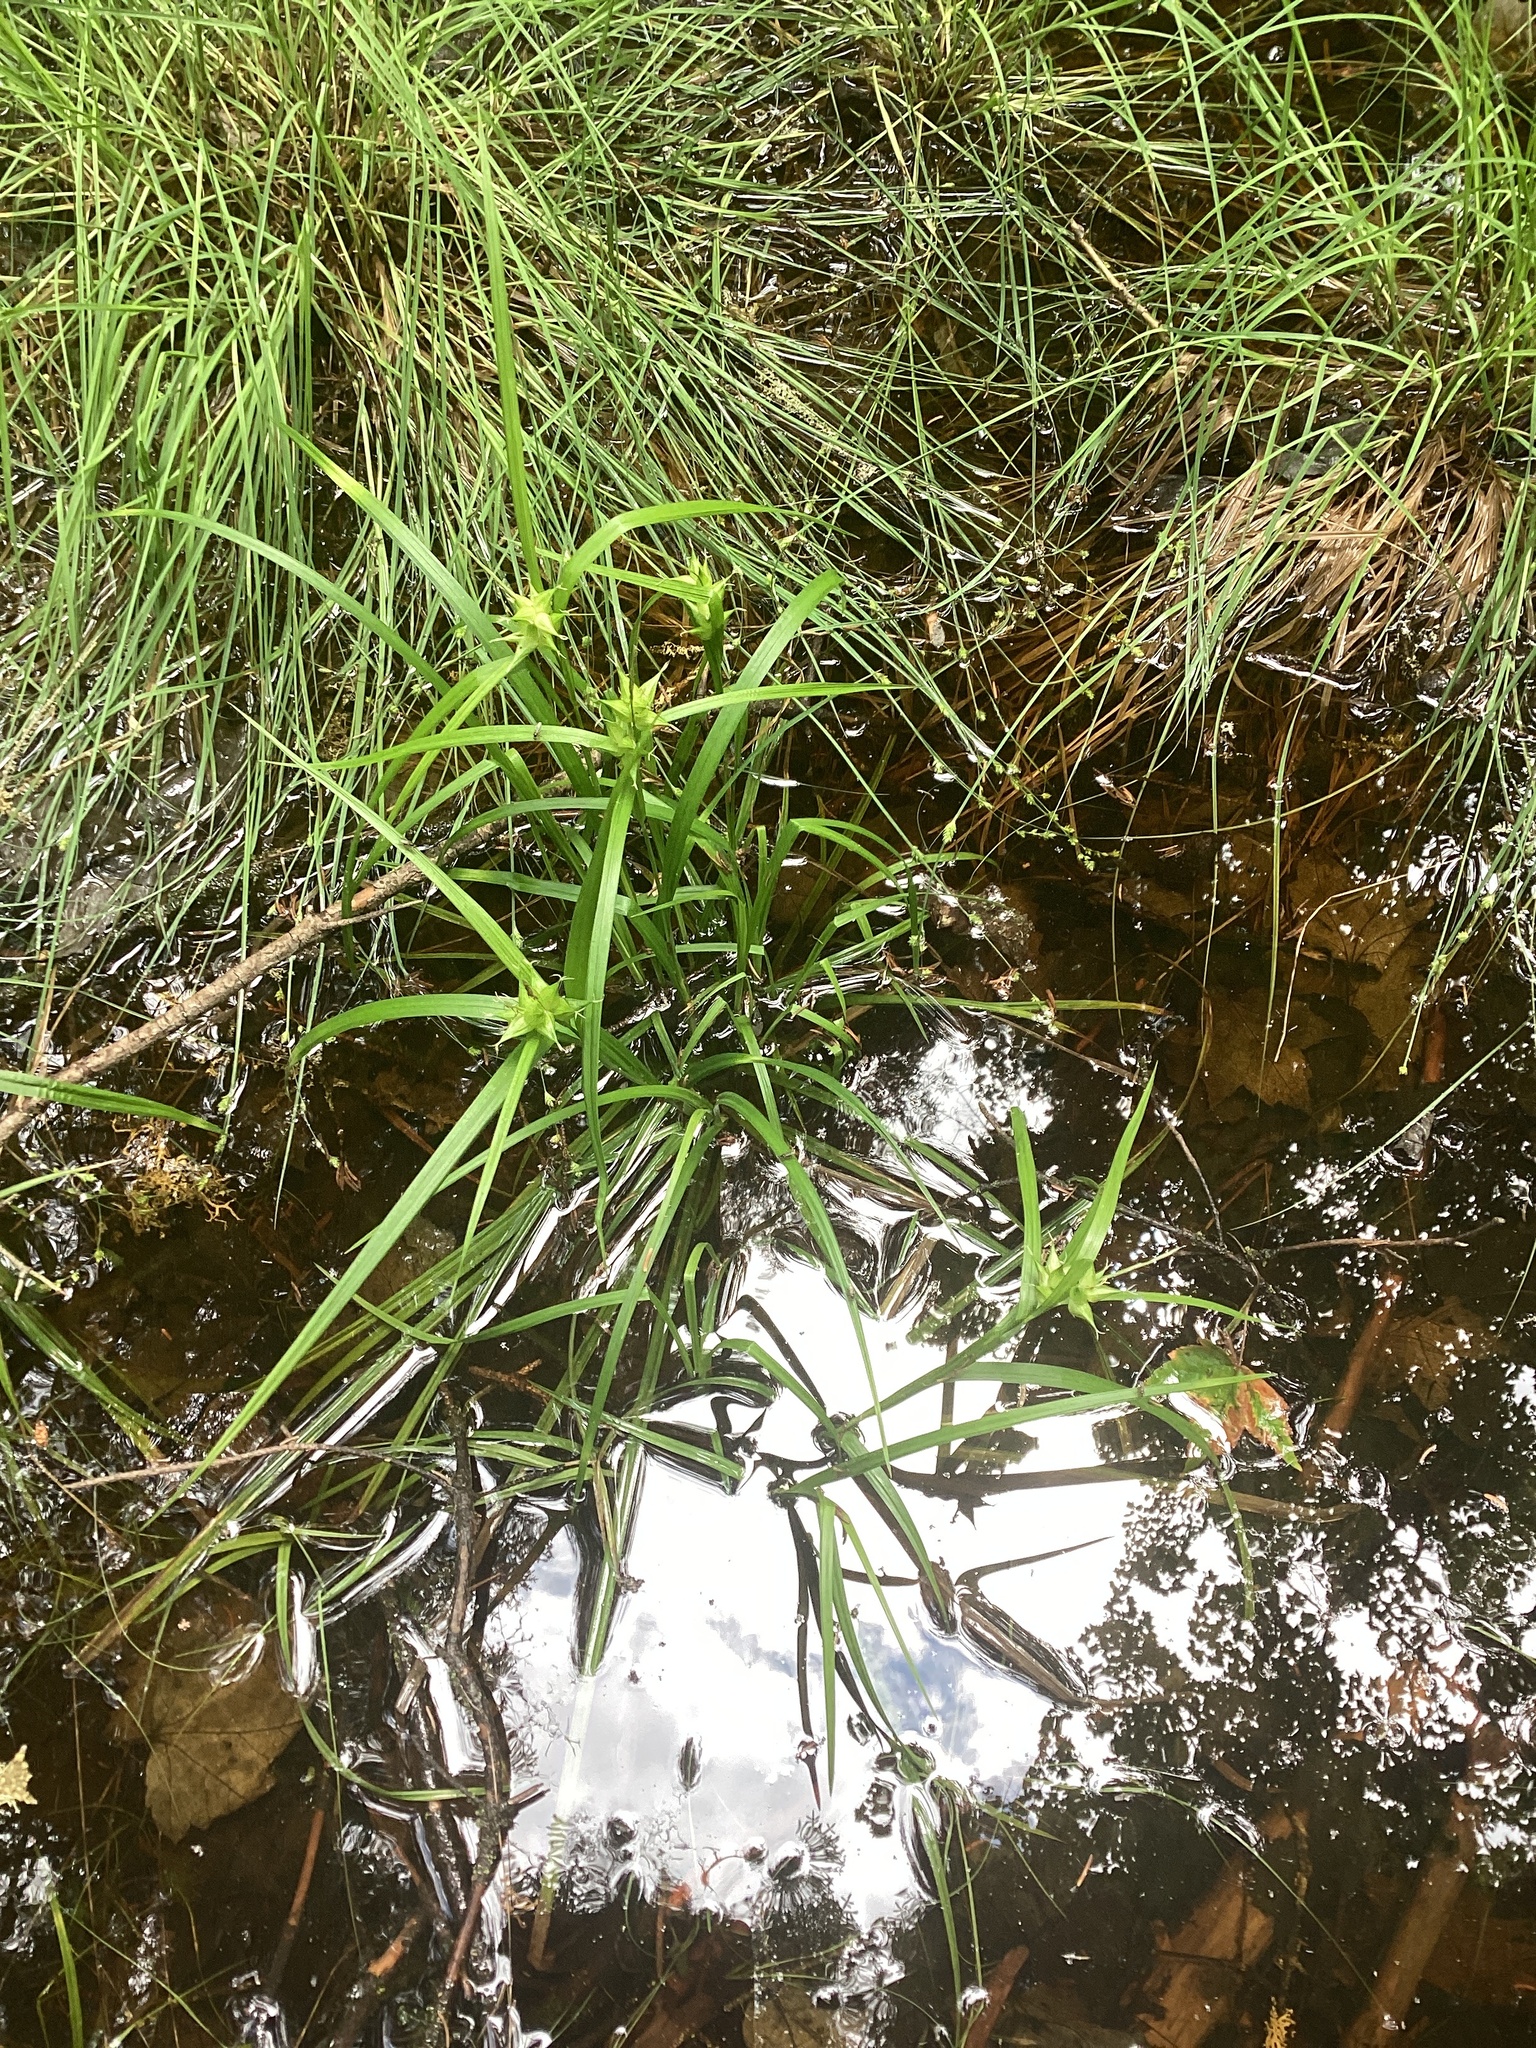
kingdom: Plantae
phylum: Tracheophyta
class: Liliopsida
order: Poales
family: Cyperaceae
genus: Carex
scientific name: Carex intumescens
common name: Greater bladder sedge
